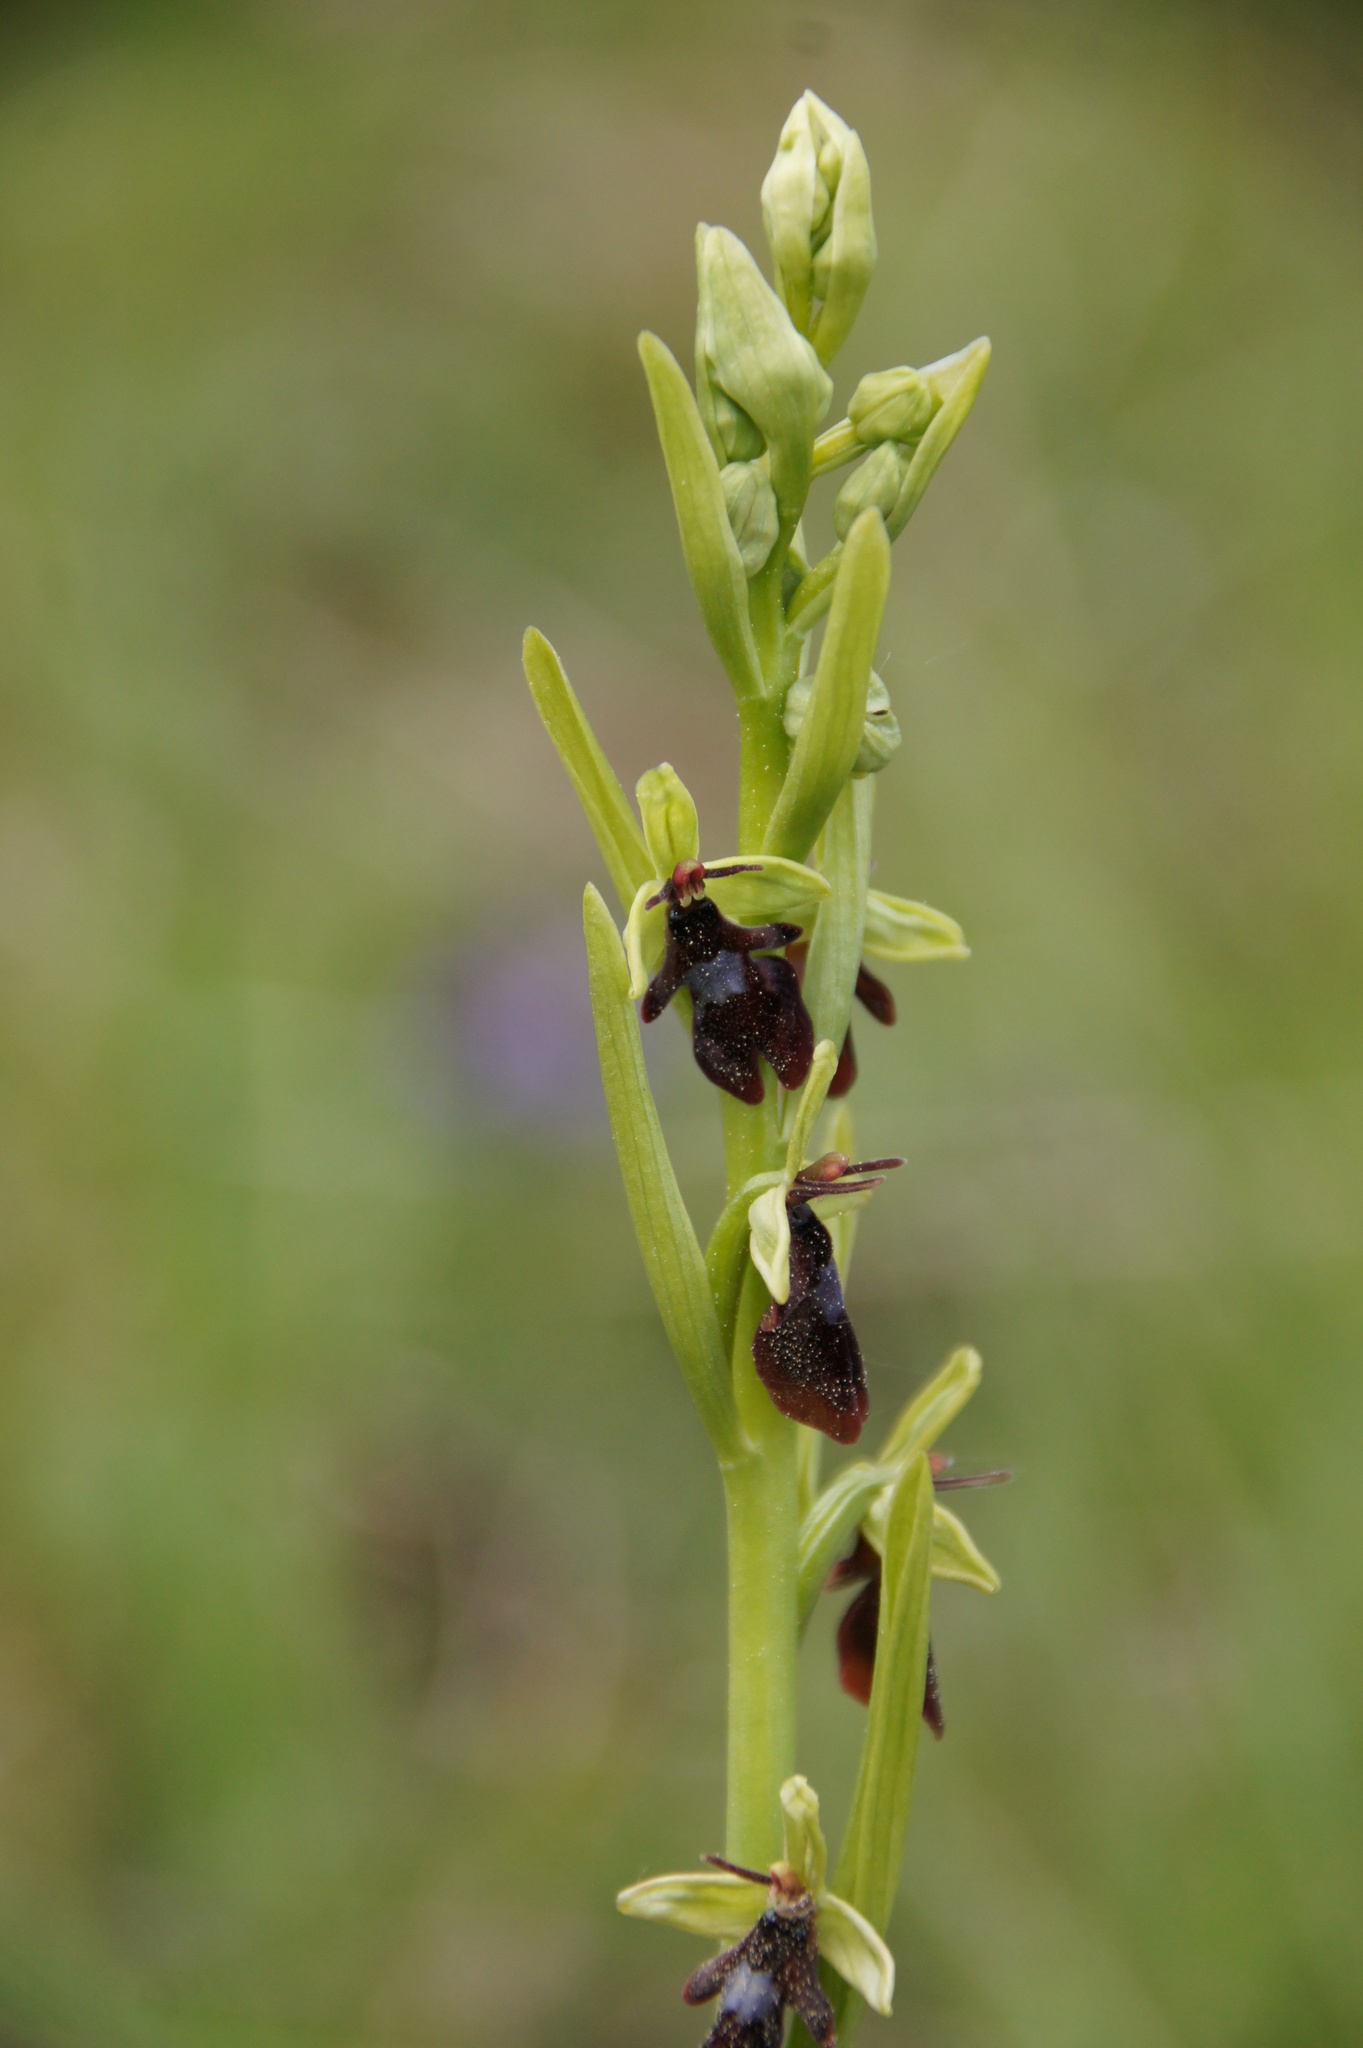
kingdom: Plantae
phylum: Tracheophyta
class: Liliopsida
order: Asparagales
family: Orchidaceae
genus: Ophrys
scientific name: Ophrys insectifera
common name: Fly orchid
